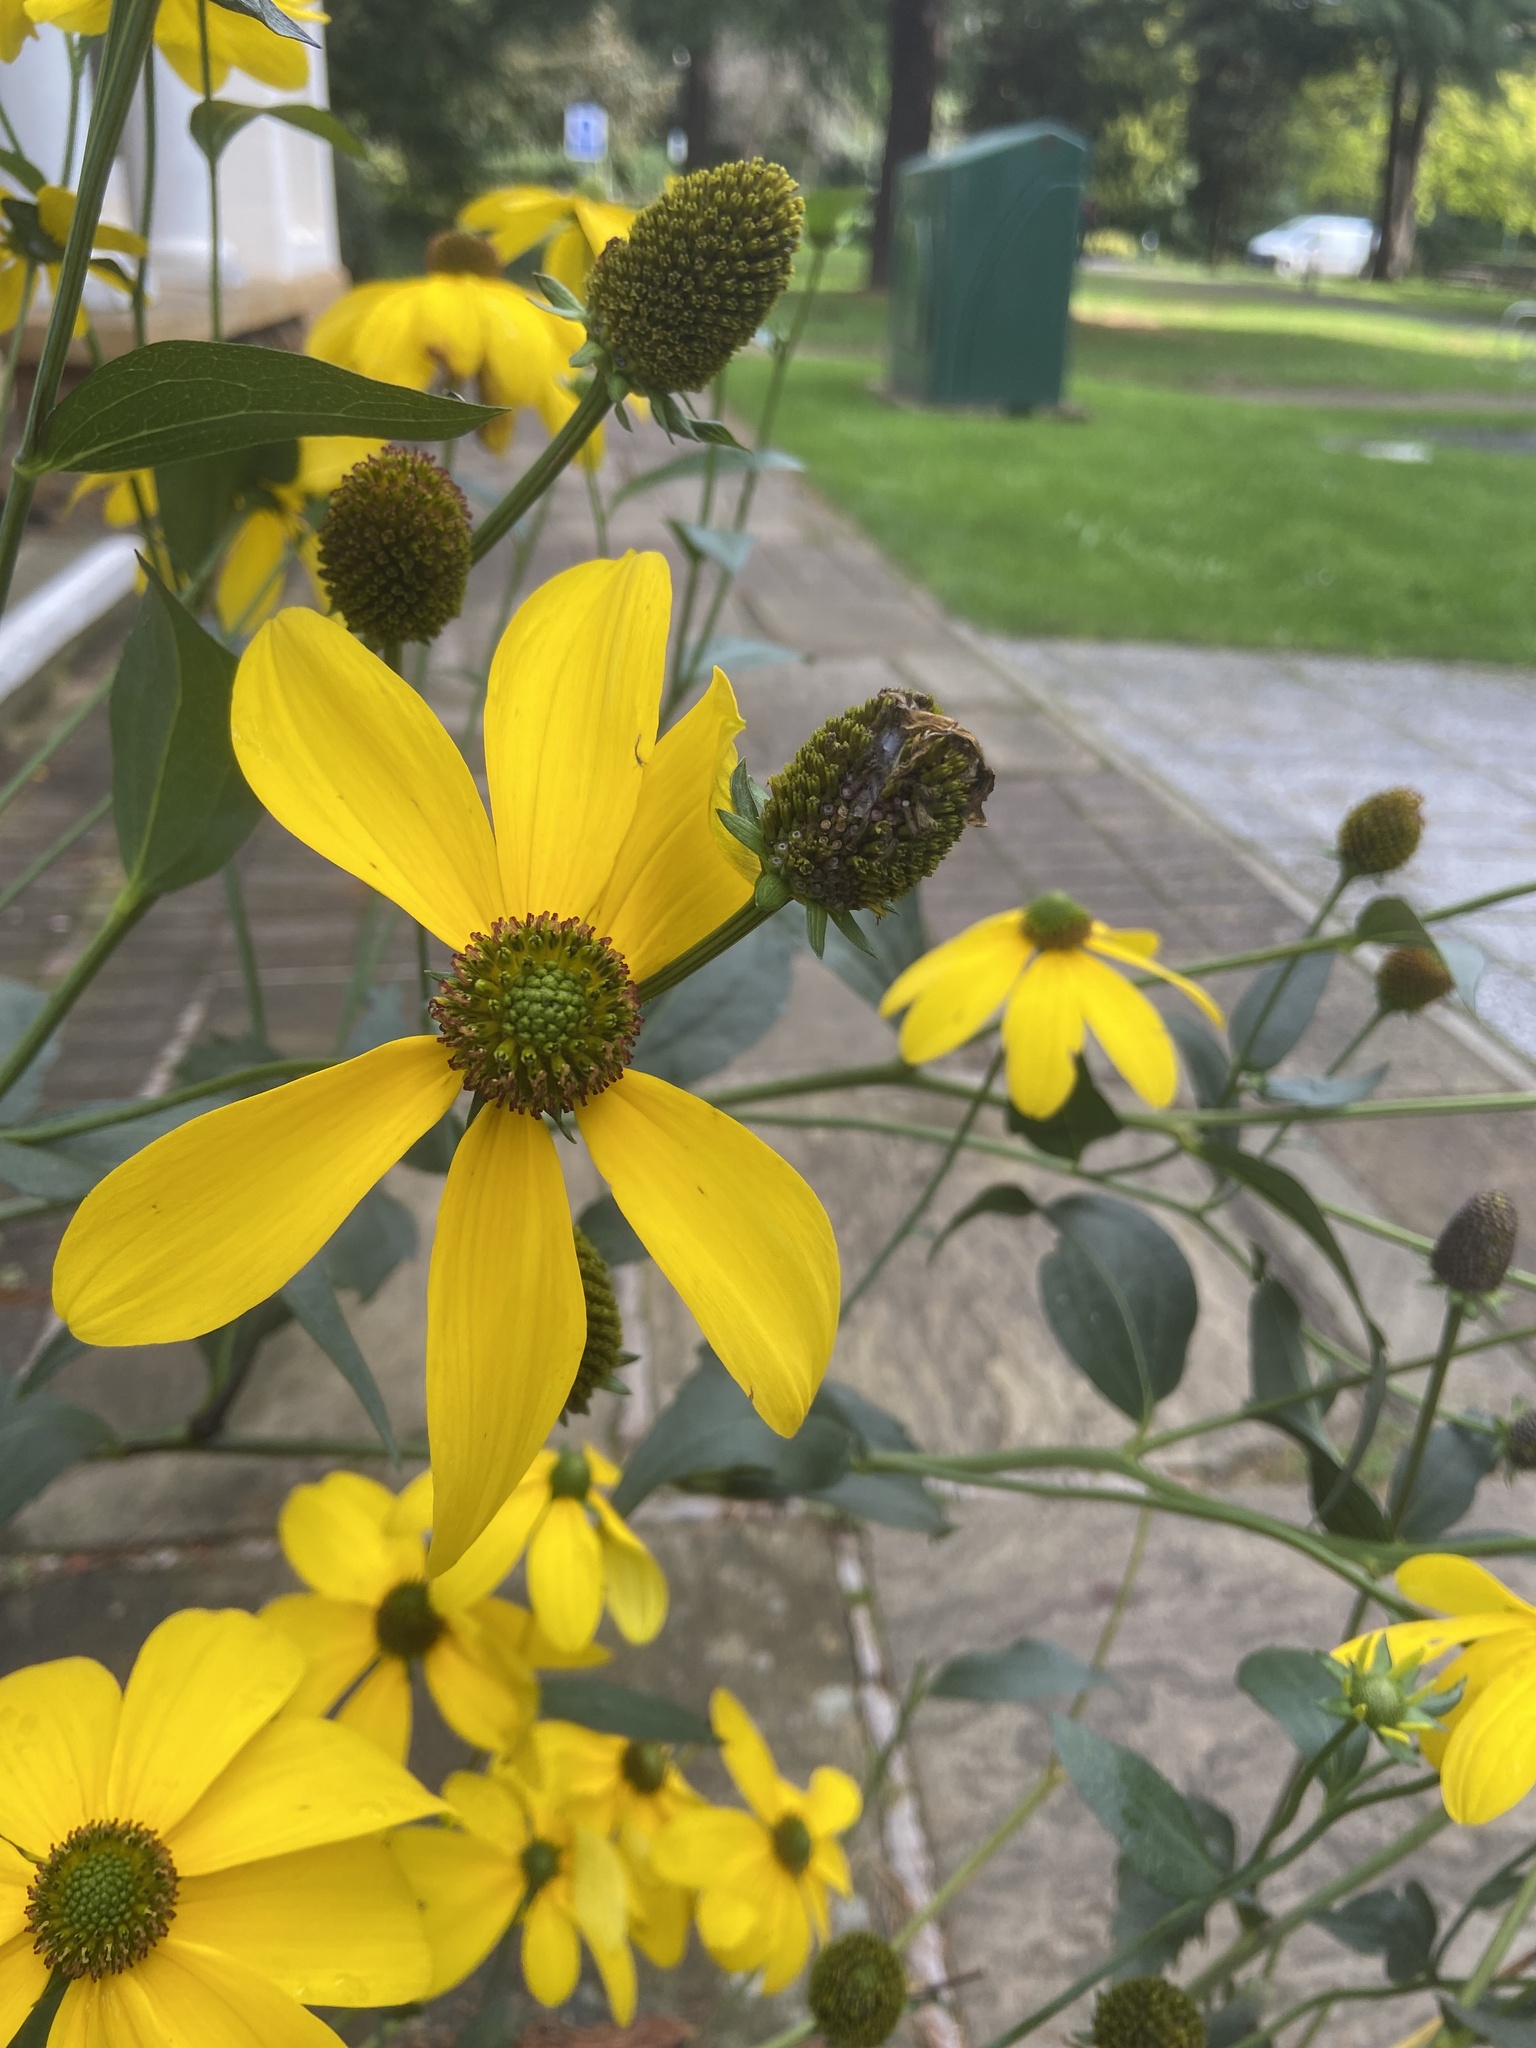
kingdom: Plantae
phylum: Tracheophyta
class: Magnoliopsida
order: Asterales
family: Asteraceae
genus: Rudbeckia
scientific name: Rudbeckia laciniata
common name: Coneflower
